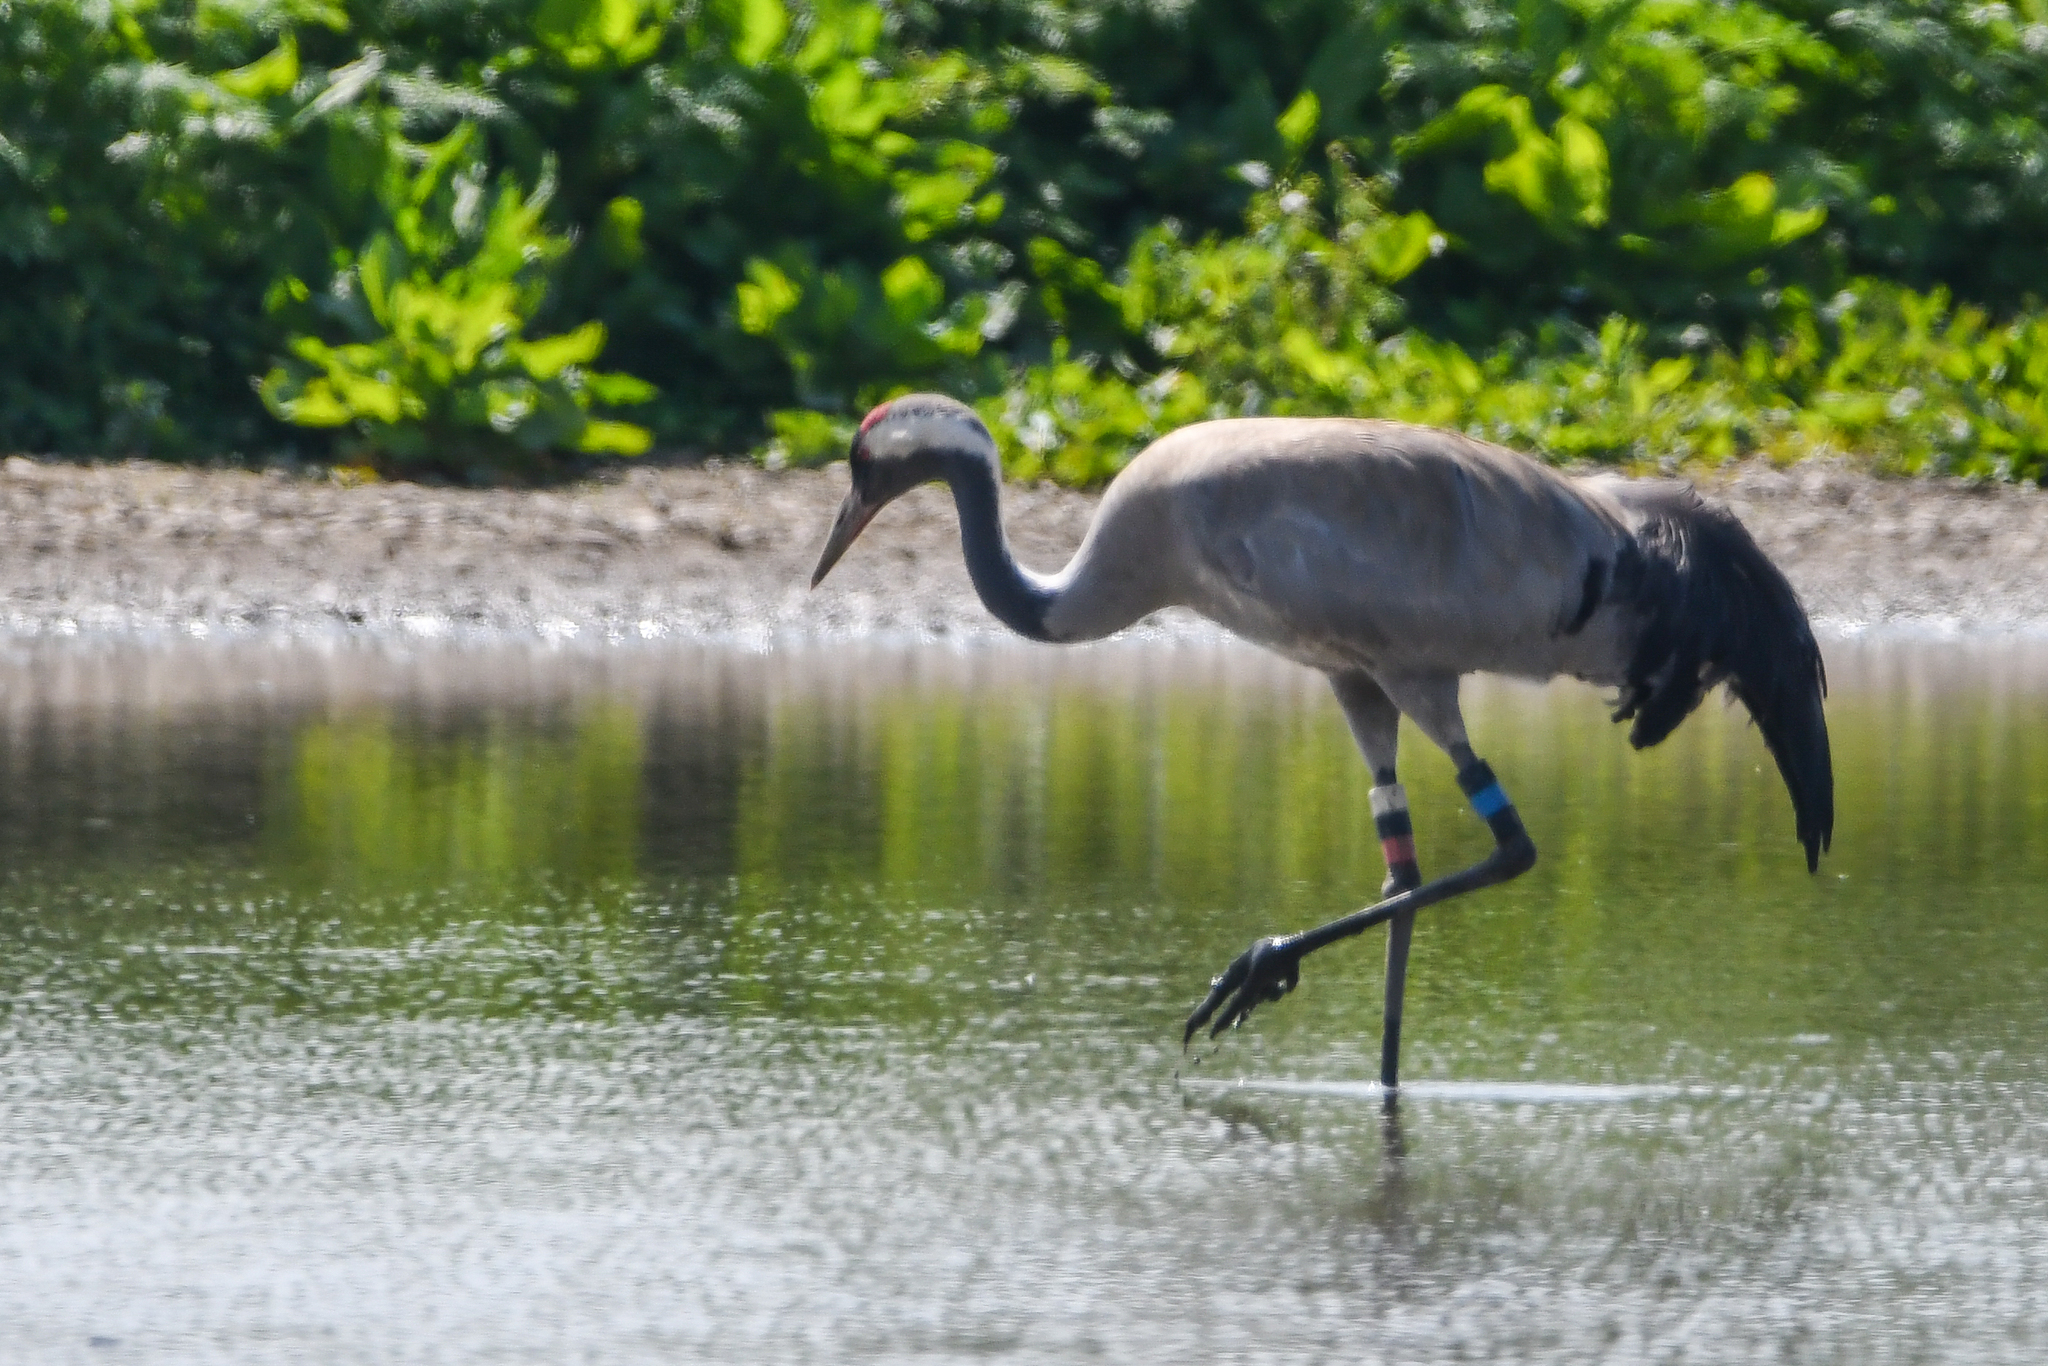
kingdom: Animalia
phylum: Chordata
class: Aves
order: Gruiformes
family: Gruidae
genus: Grus
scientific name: Grus grus
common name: Common crane
